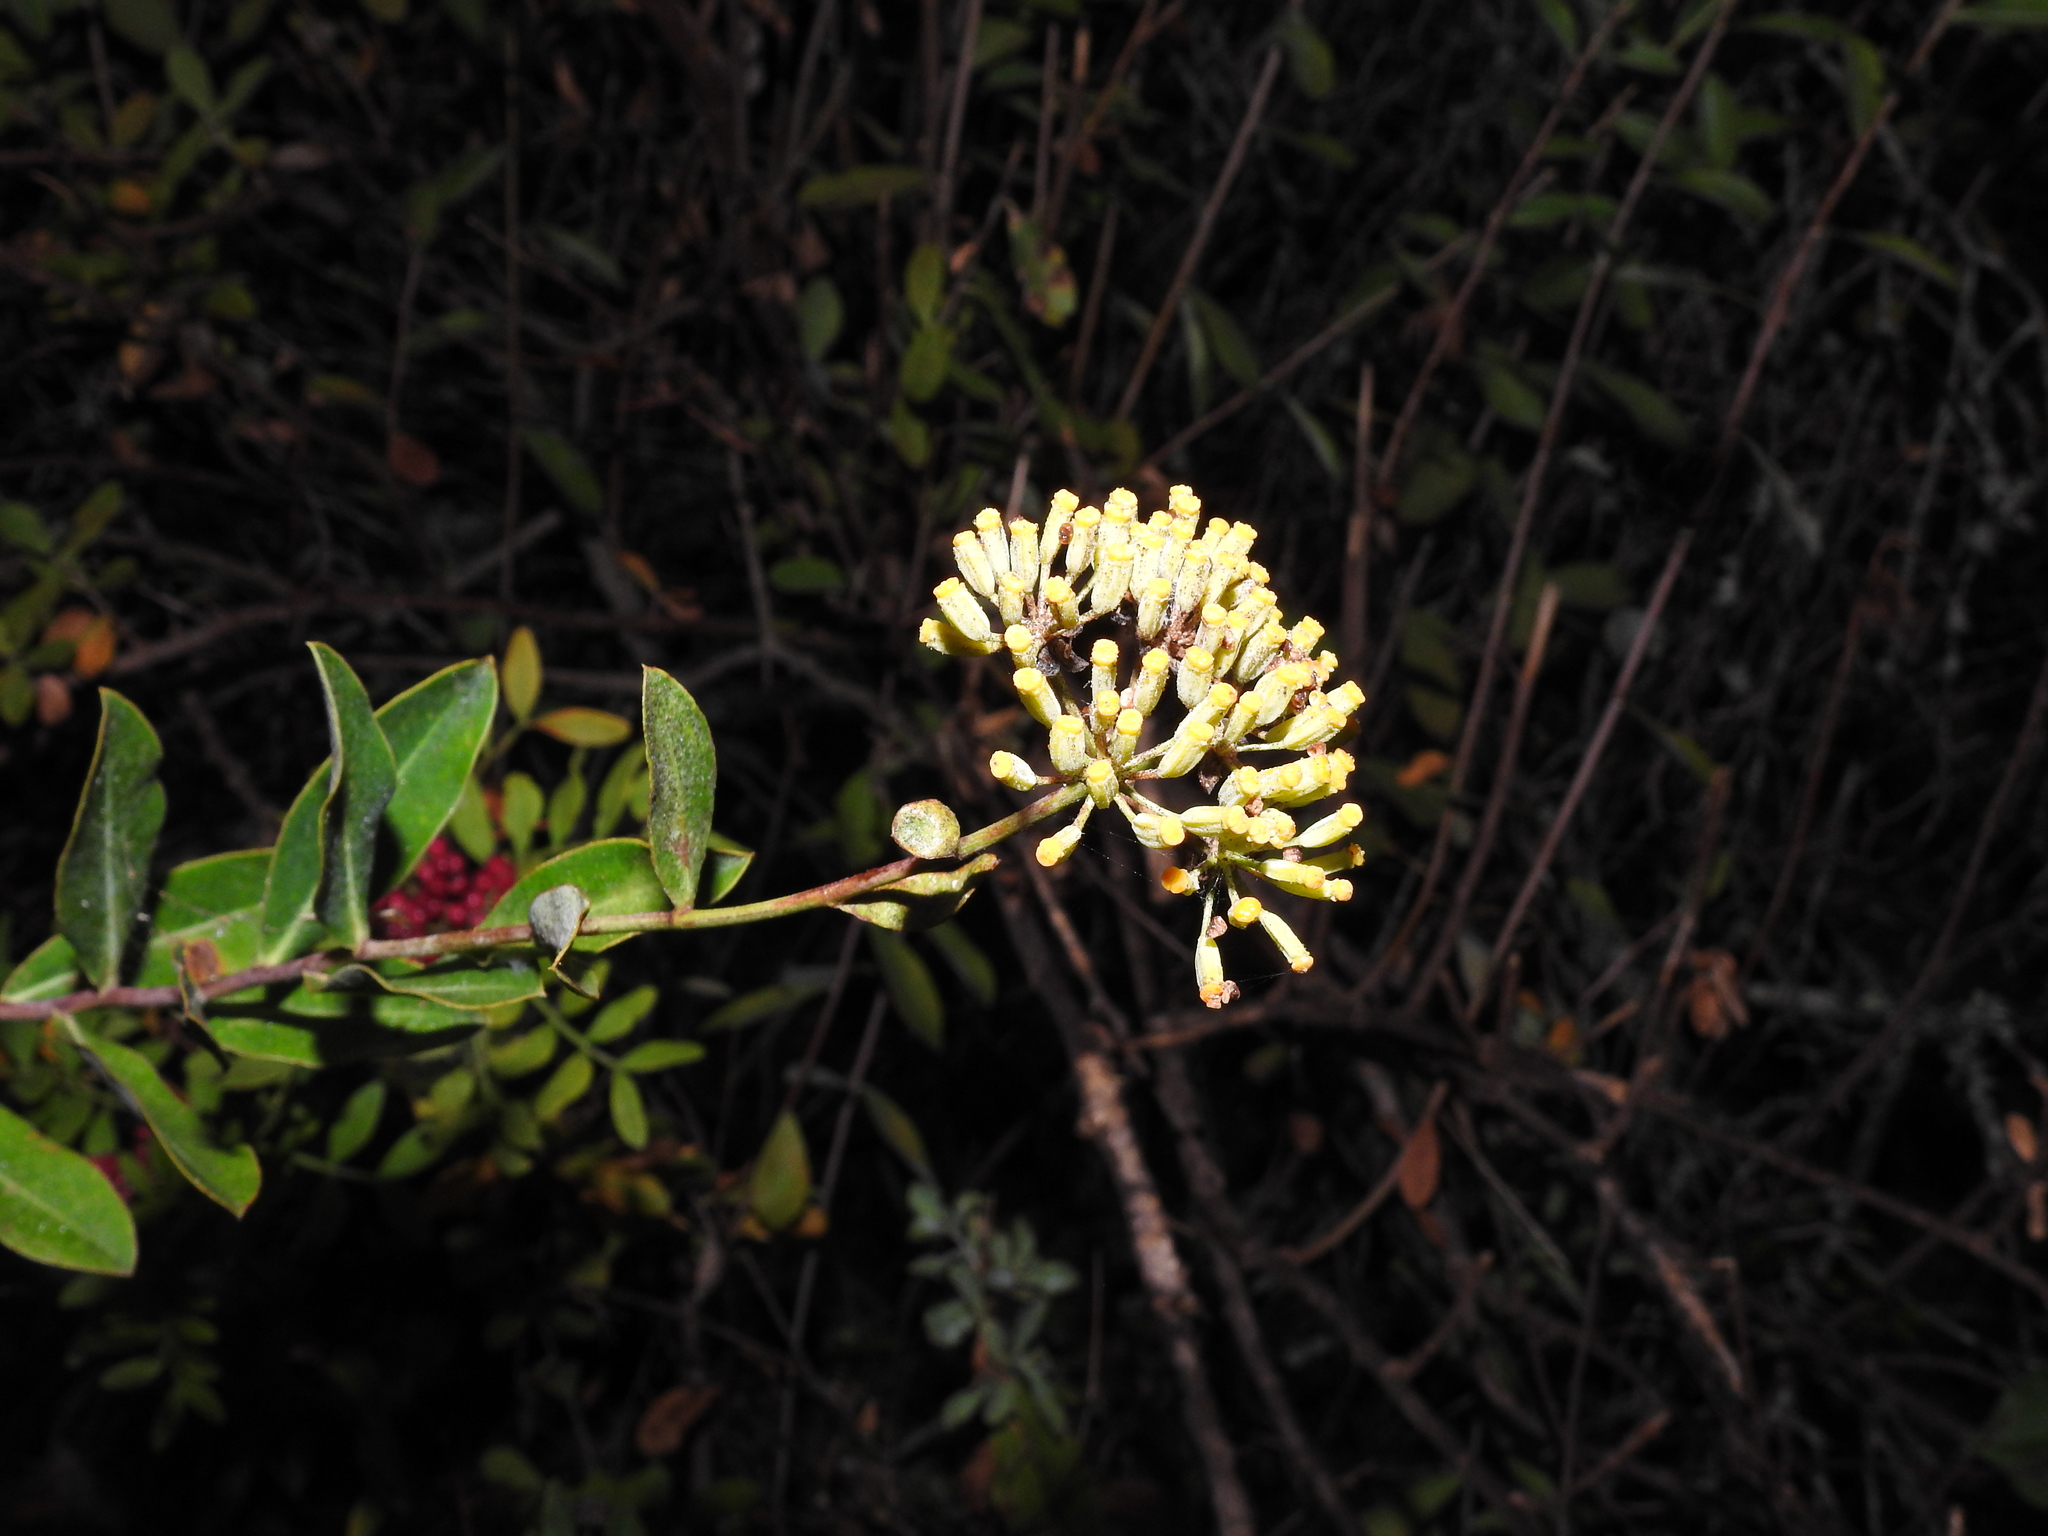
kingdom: Plantae
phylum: Tracheophyta
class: Magnoliopsida
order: Apiales
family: Apiaceae
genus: Bupleurum
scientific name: Bupleurum fruticosum
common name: Shrubby hare's-ear
